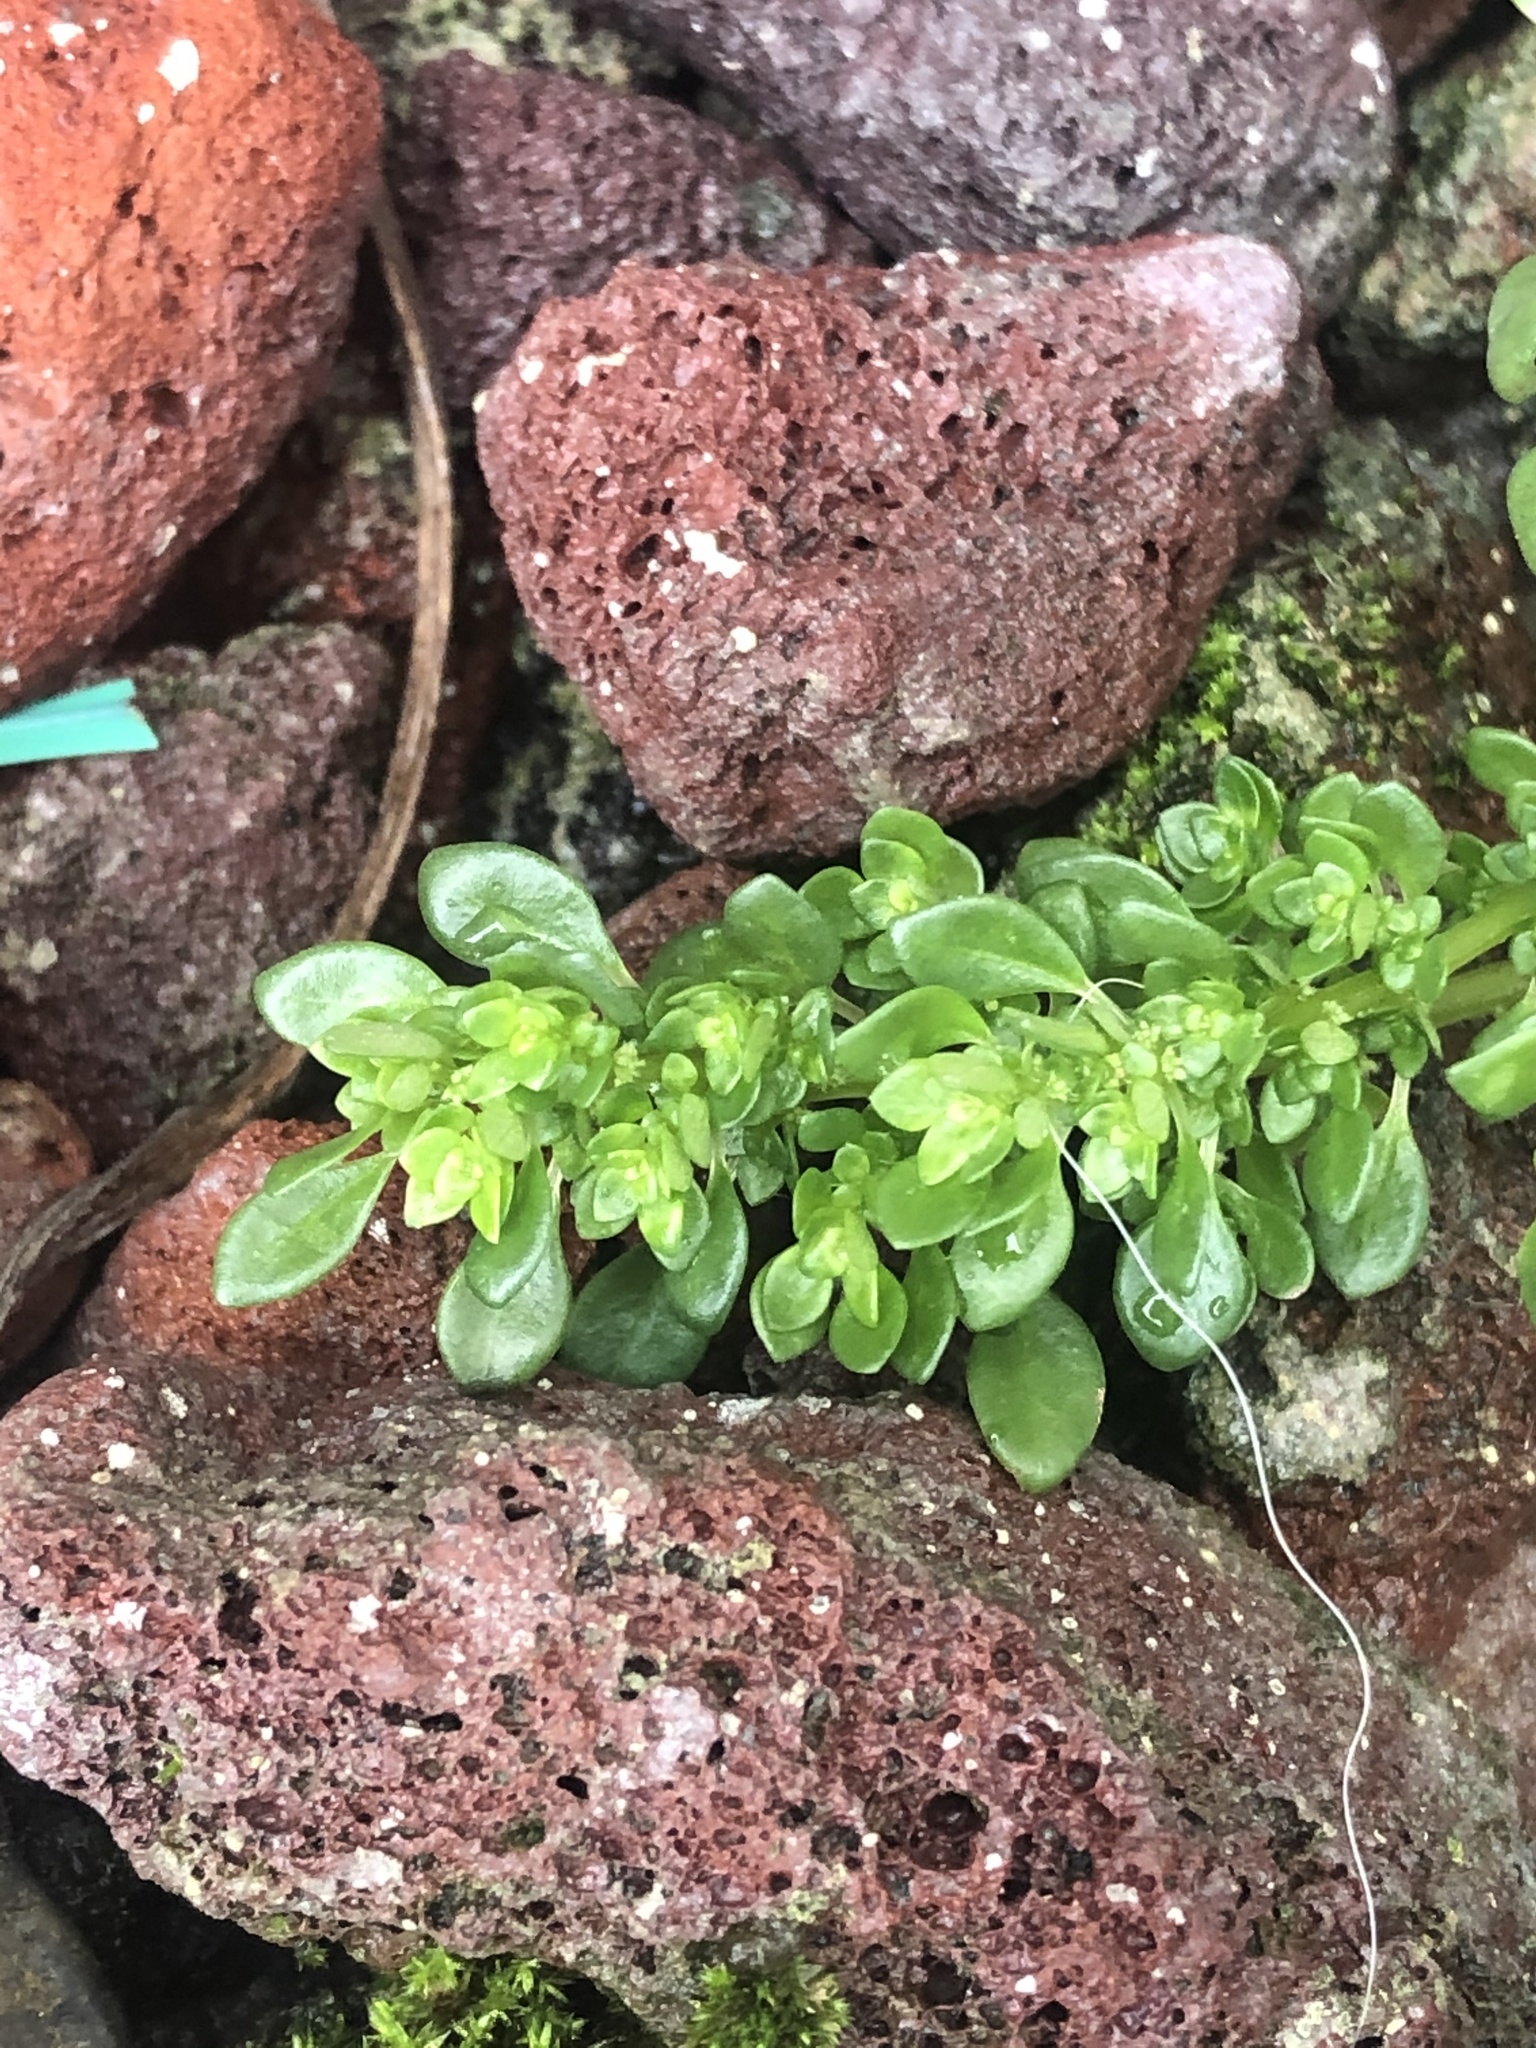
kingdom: Plantae
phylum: Tracheophyta
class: Magnoliopsida
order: Rosales
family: Urticaceae
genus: Pilea
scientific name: Pilea microphylla
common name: Artillery-plant
